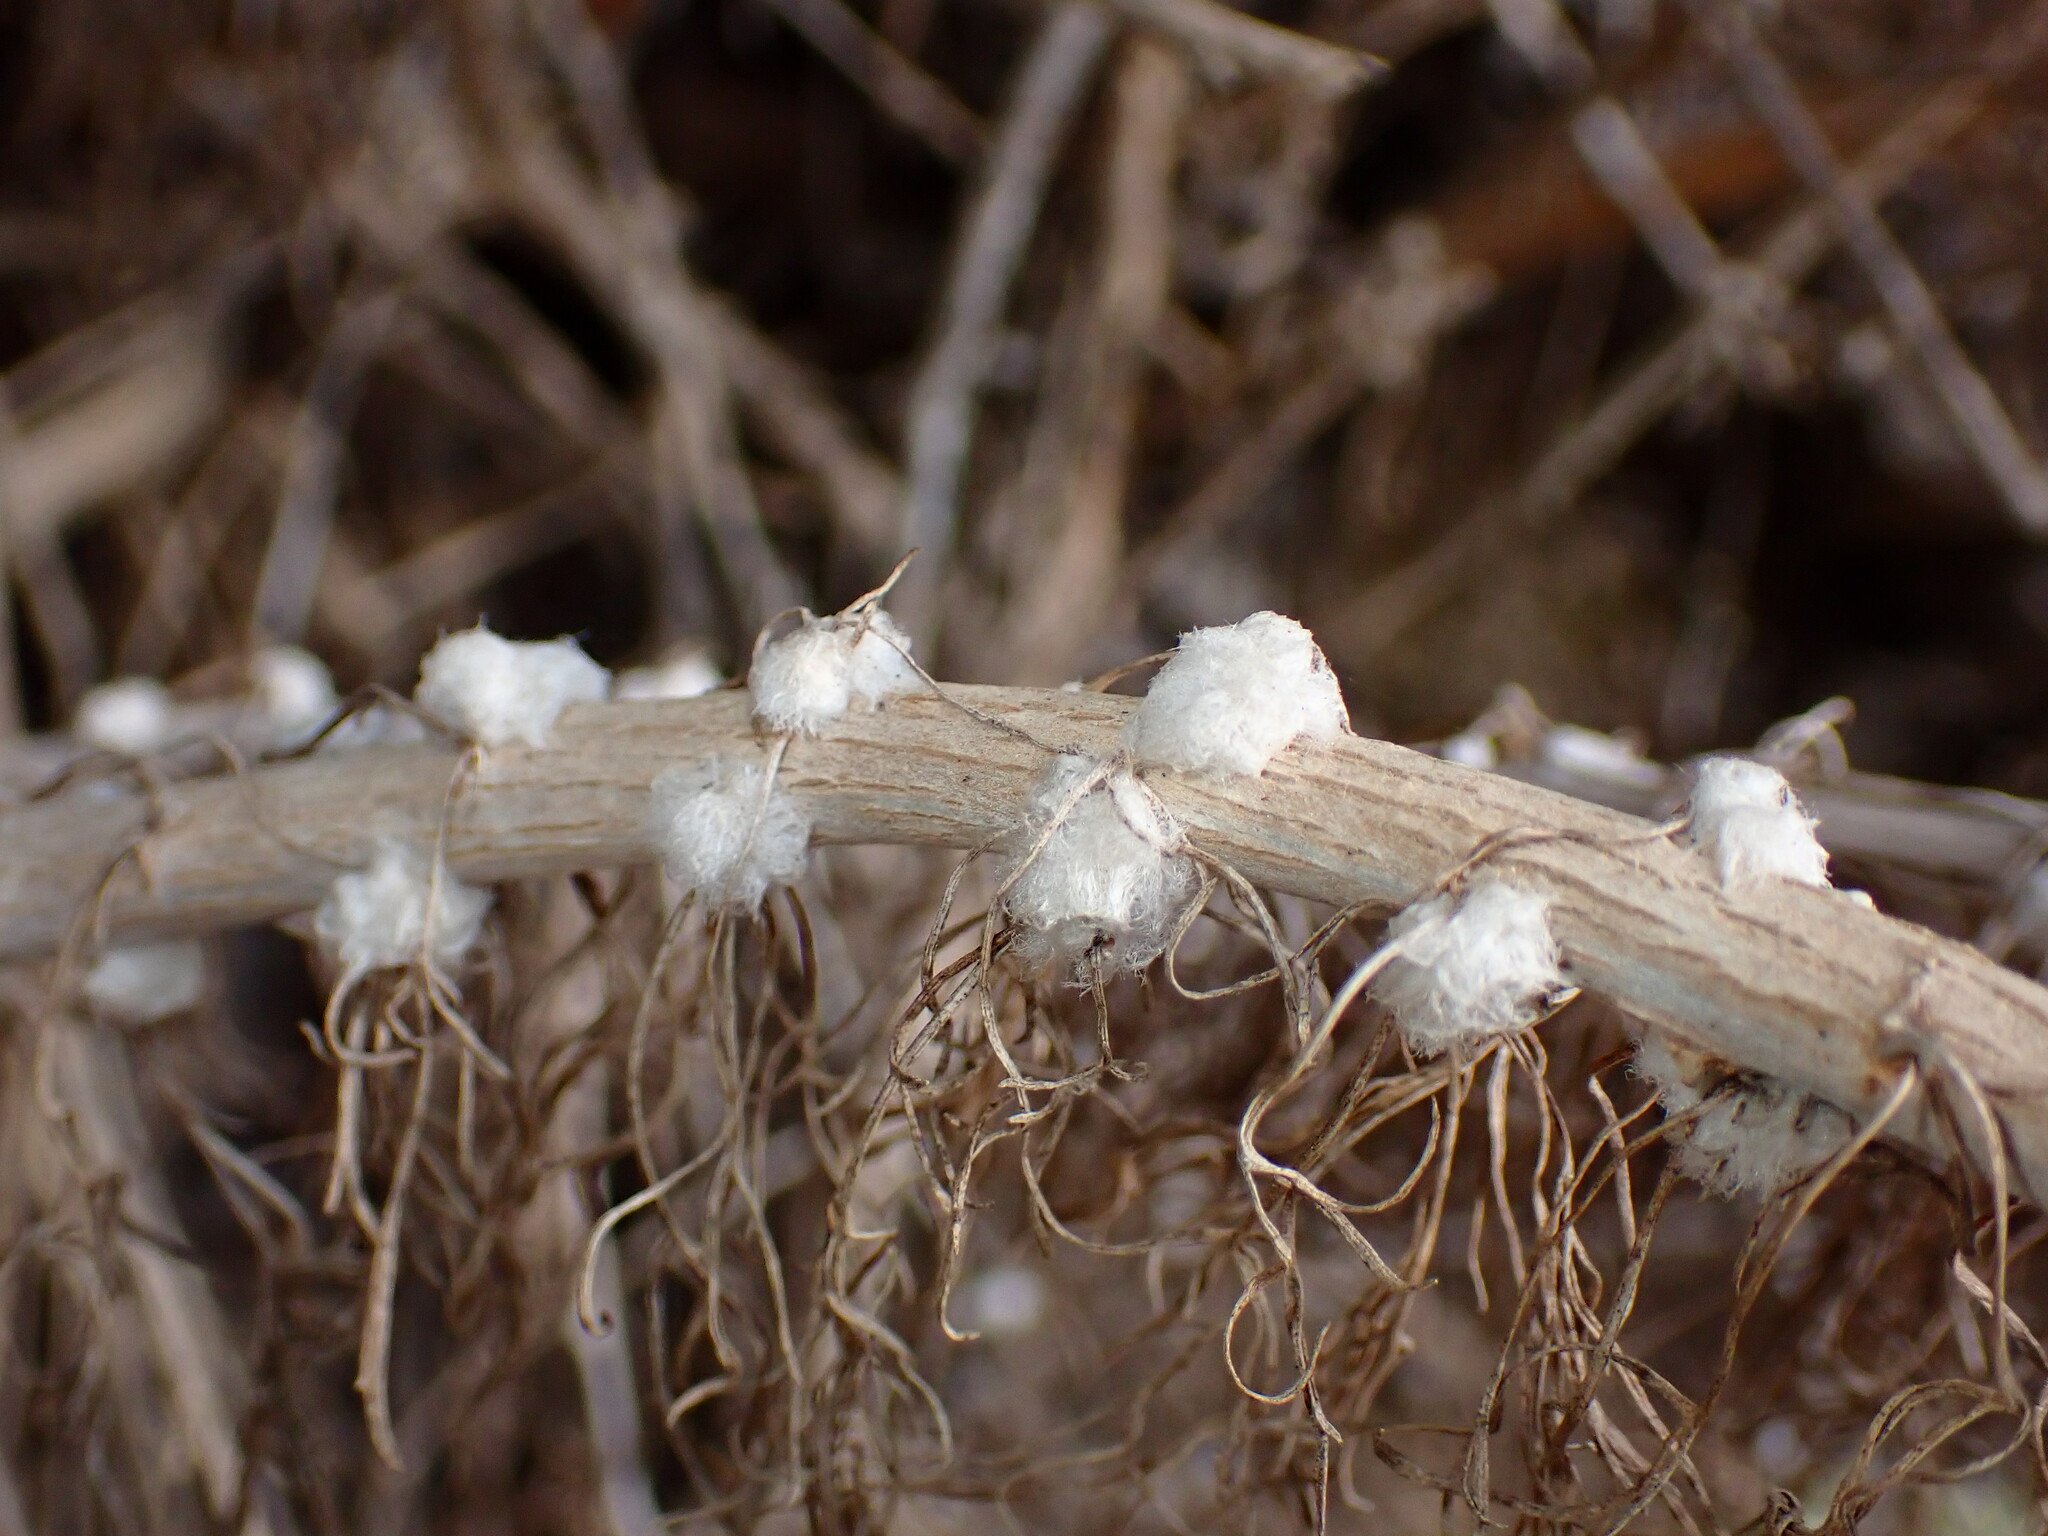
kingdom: Animalia
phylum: Arthropoda
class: Insecta
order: Diptera
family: Cecidomyiidae
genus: Rhopalomyia
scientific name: Rhopalomyia floccosa
